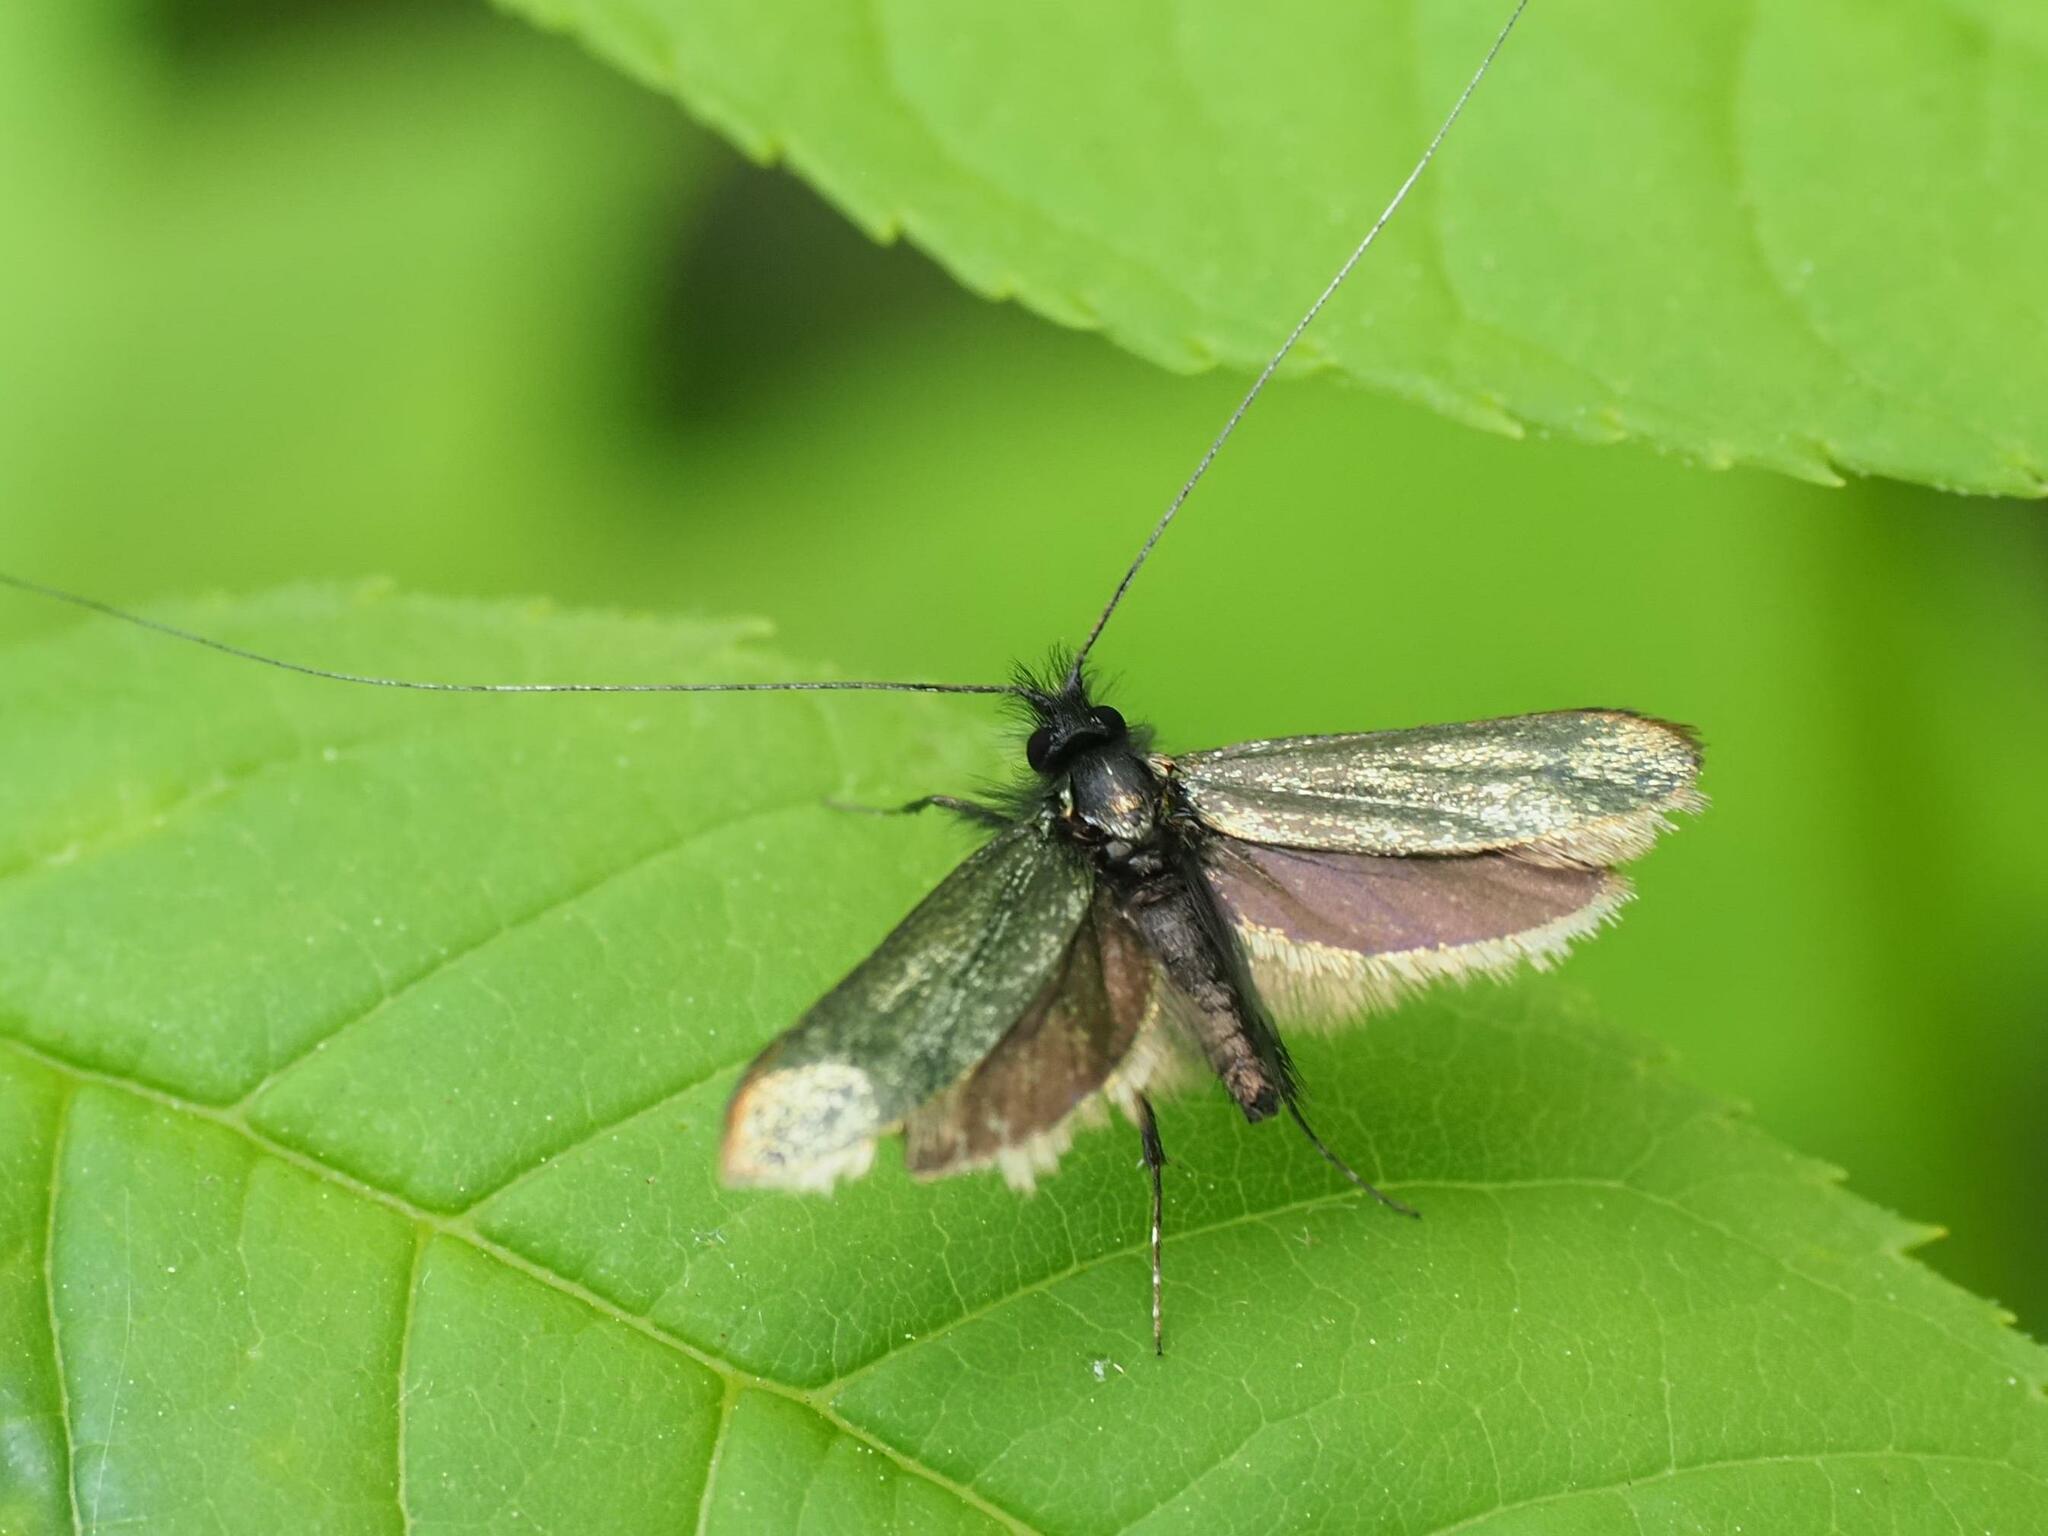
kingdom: Animalia
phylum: Arthropoda
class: Insecta
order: Lepidoptera
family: Adelidae
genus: Adela
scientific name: Adela viridella
